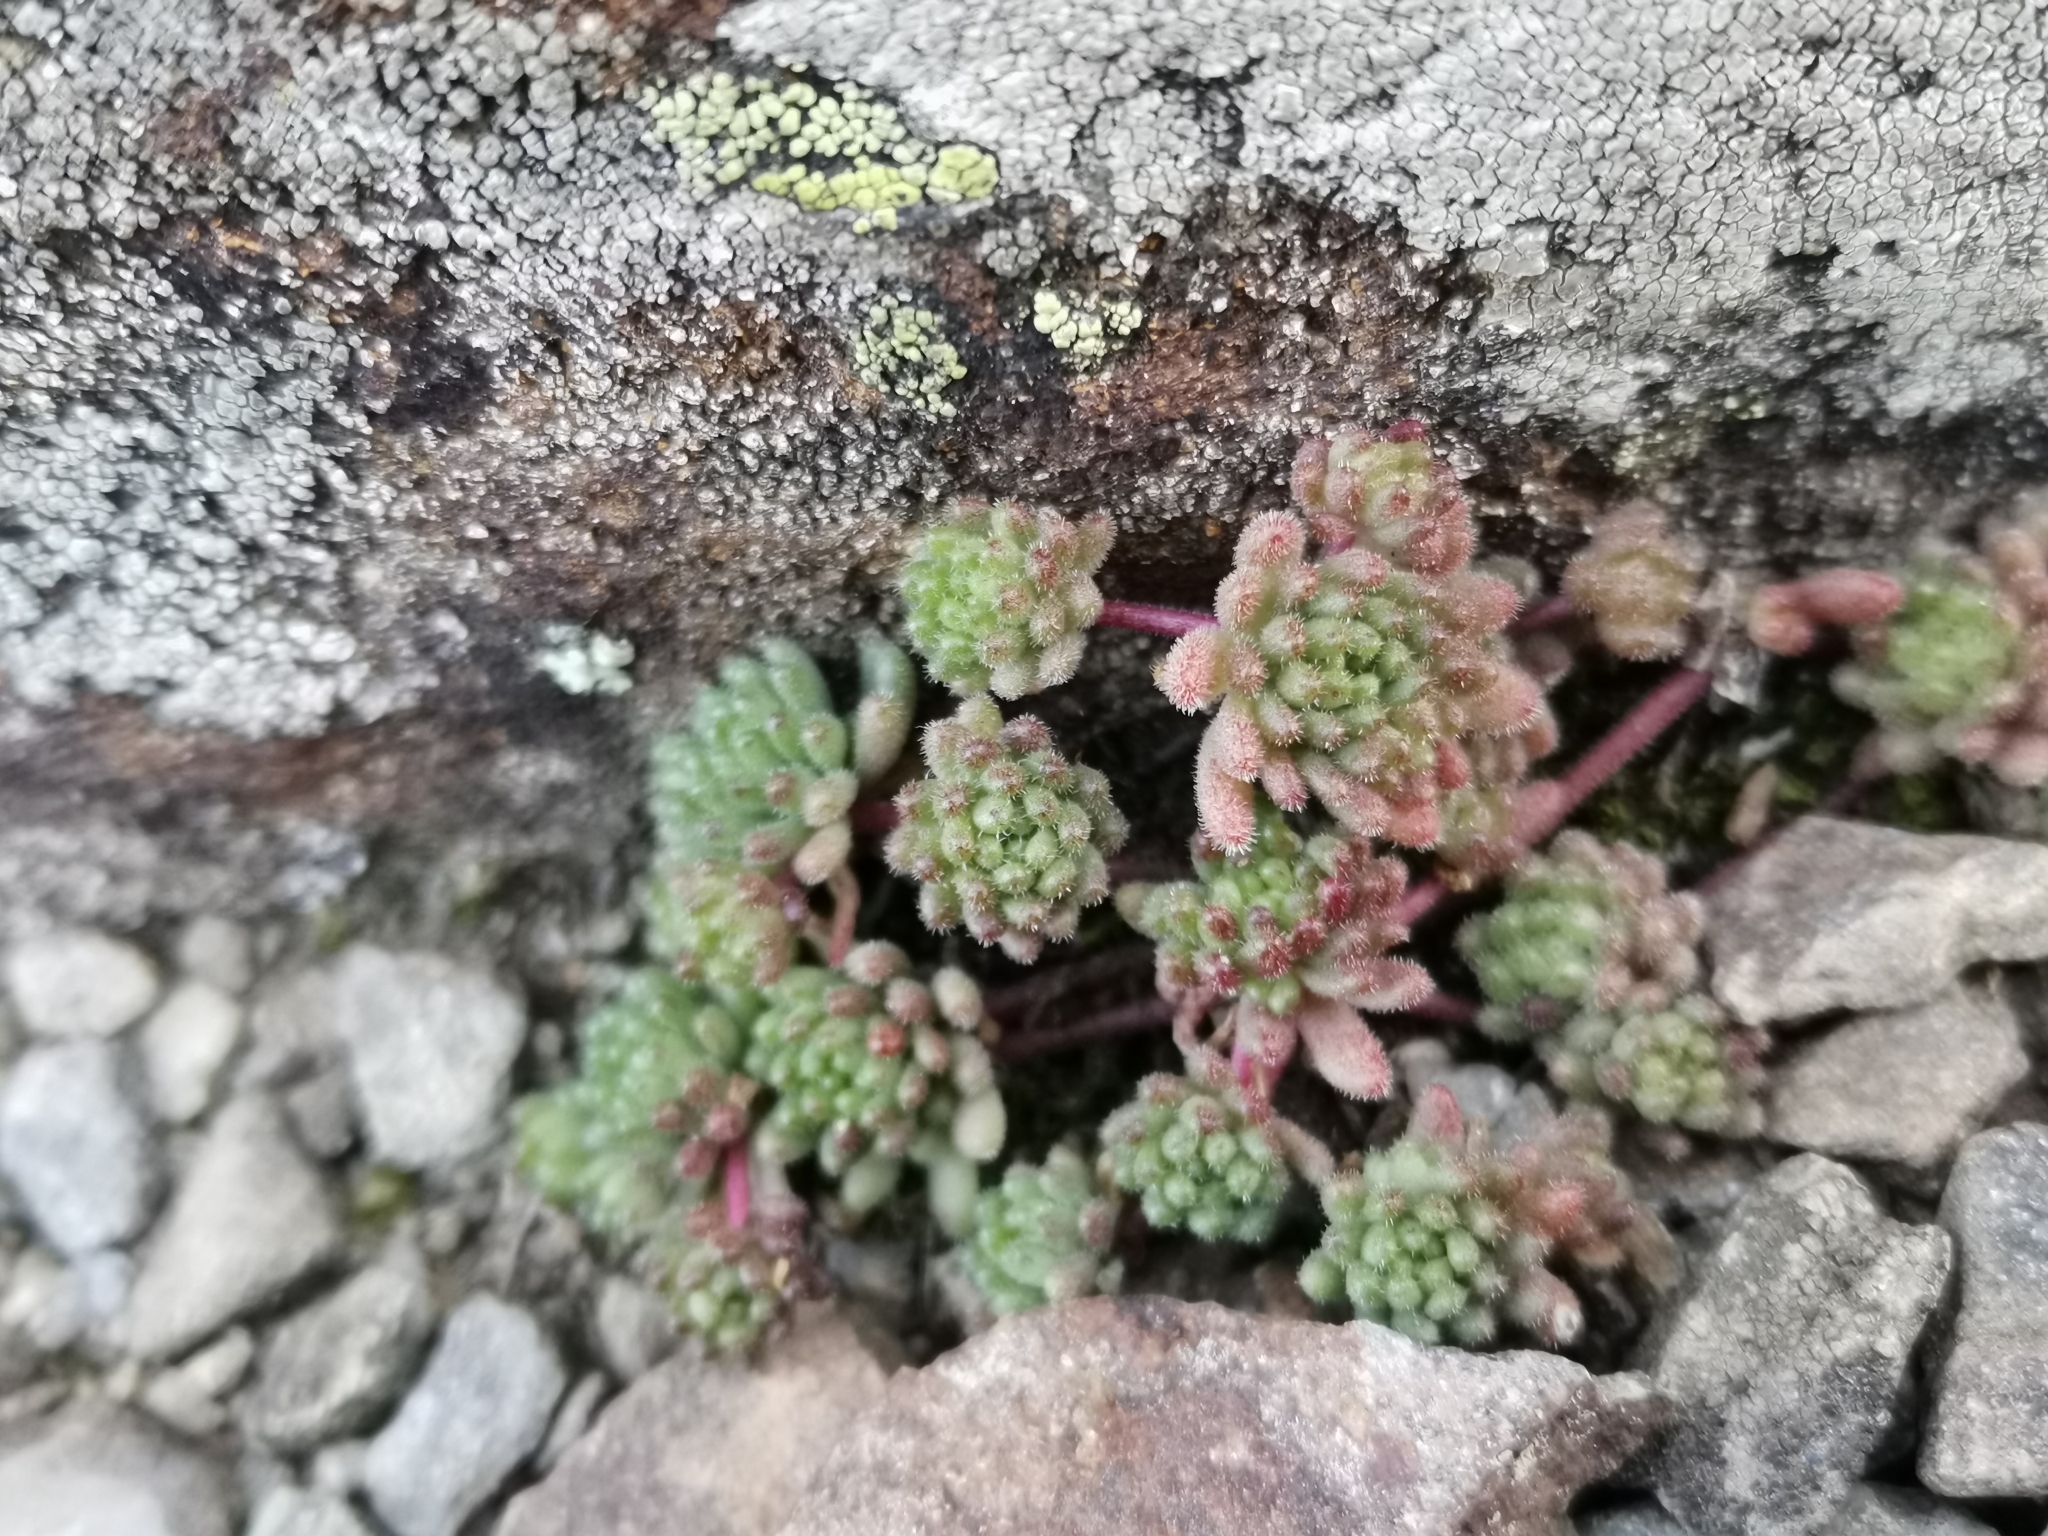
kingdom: Plantae
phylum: Tracheophyta
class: Magnoliopsida
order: Saxifragales
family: Crassulaceae
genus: Sedum
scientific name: Sedum hirsutum
